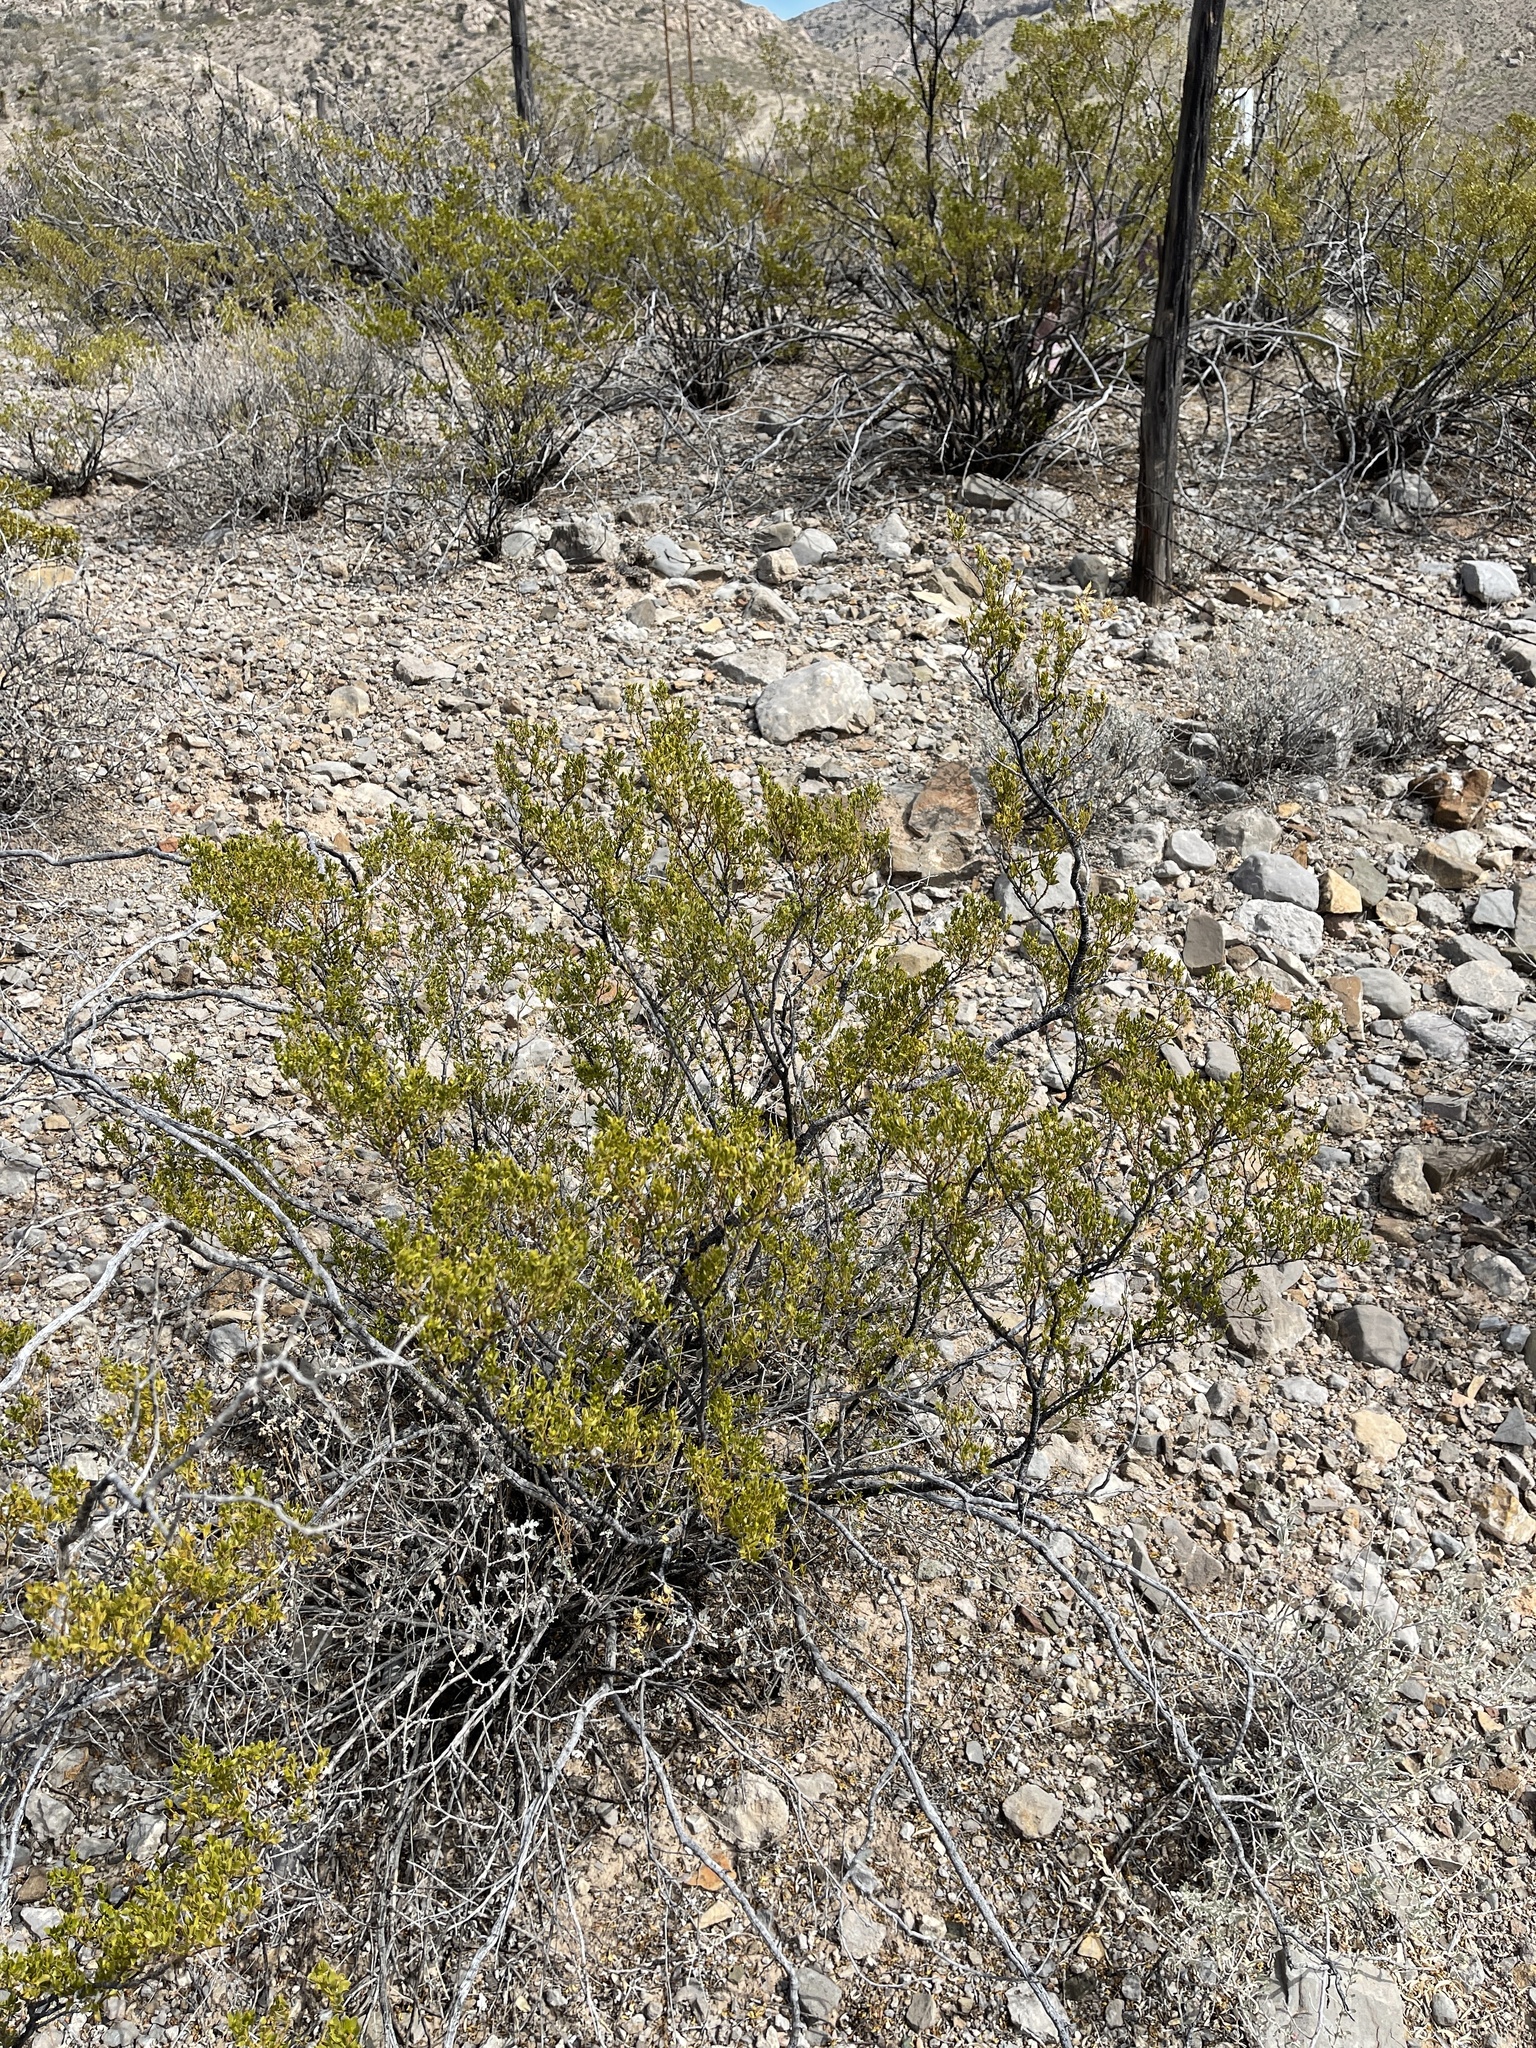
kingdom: Plantae
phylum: Tracheophyta
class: Magnoliopsida
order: Zygophyllales
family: Zygophyllaceae
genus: Larrea
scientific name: Larrea tridentata
